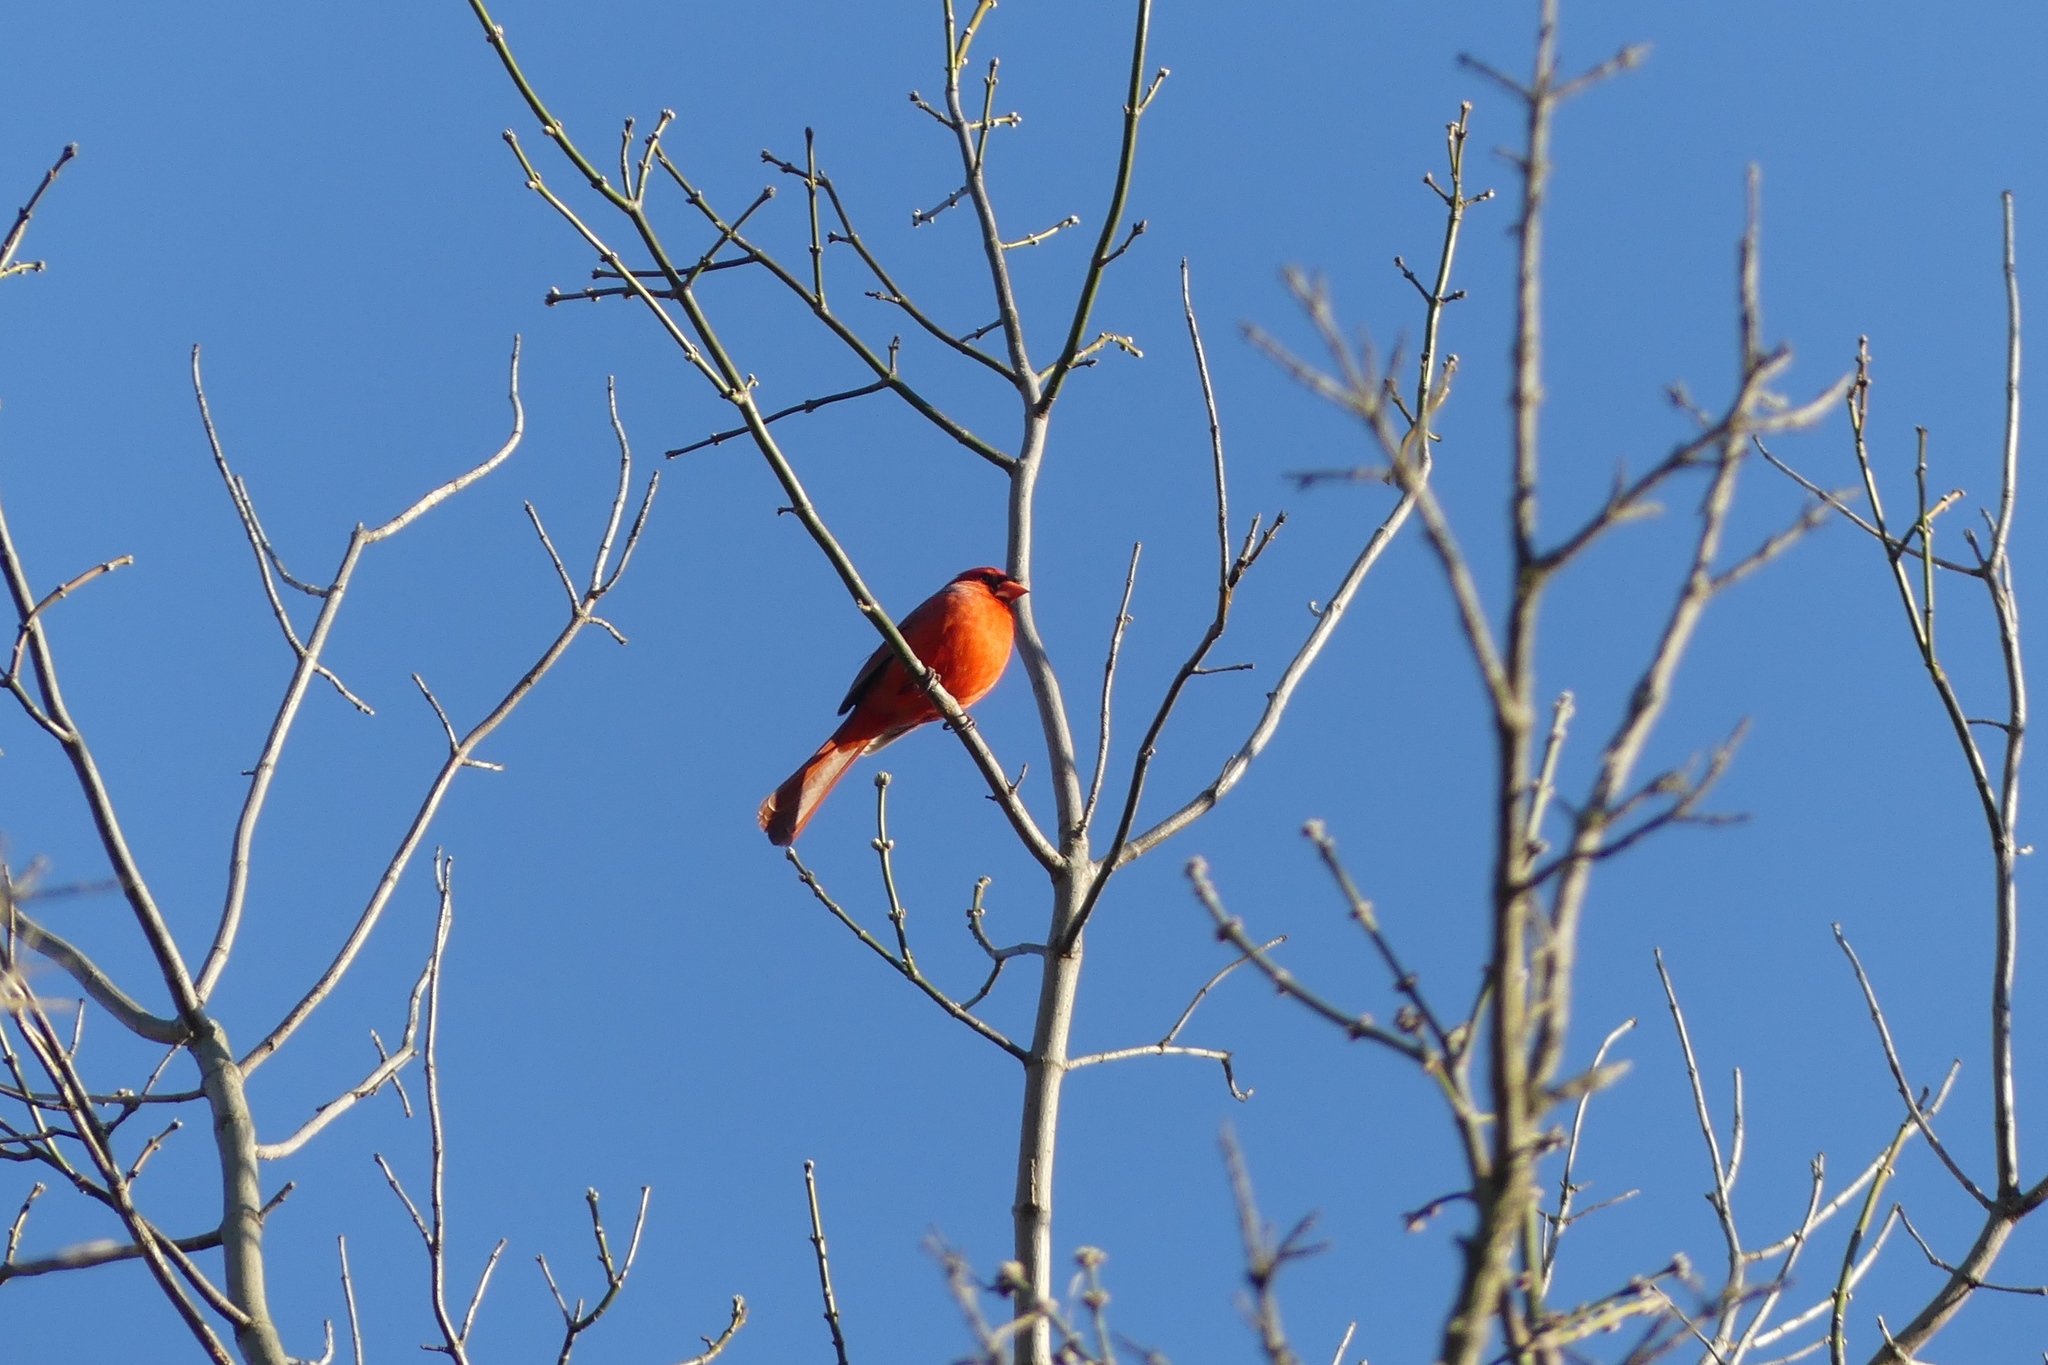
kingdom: Animalia
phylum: Chordata
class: Aves
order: Passeriformes
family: Cardinalidae
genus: Cardinalis
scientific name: Cardinalis cardinalis
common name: Northern cardinal
